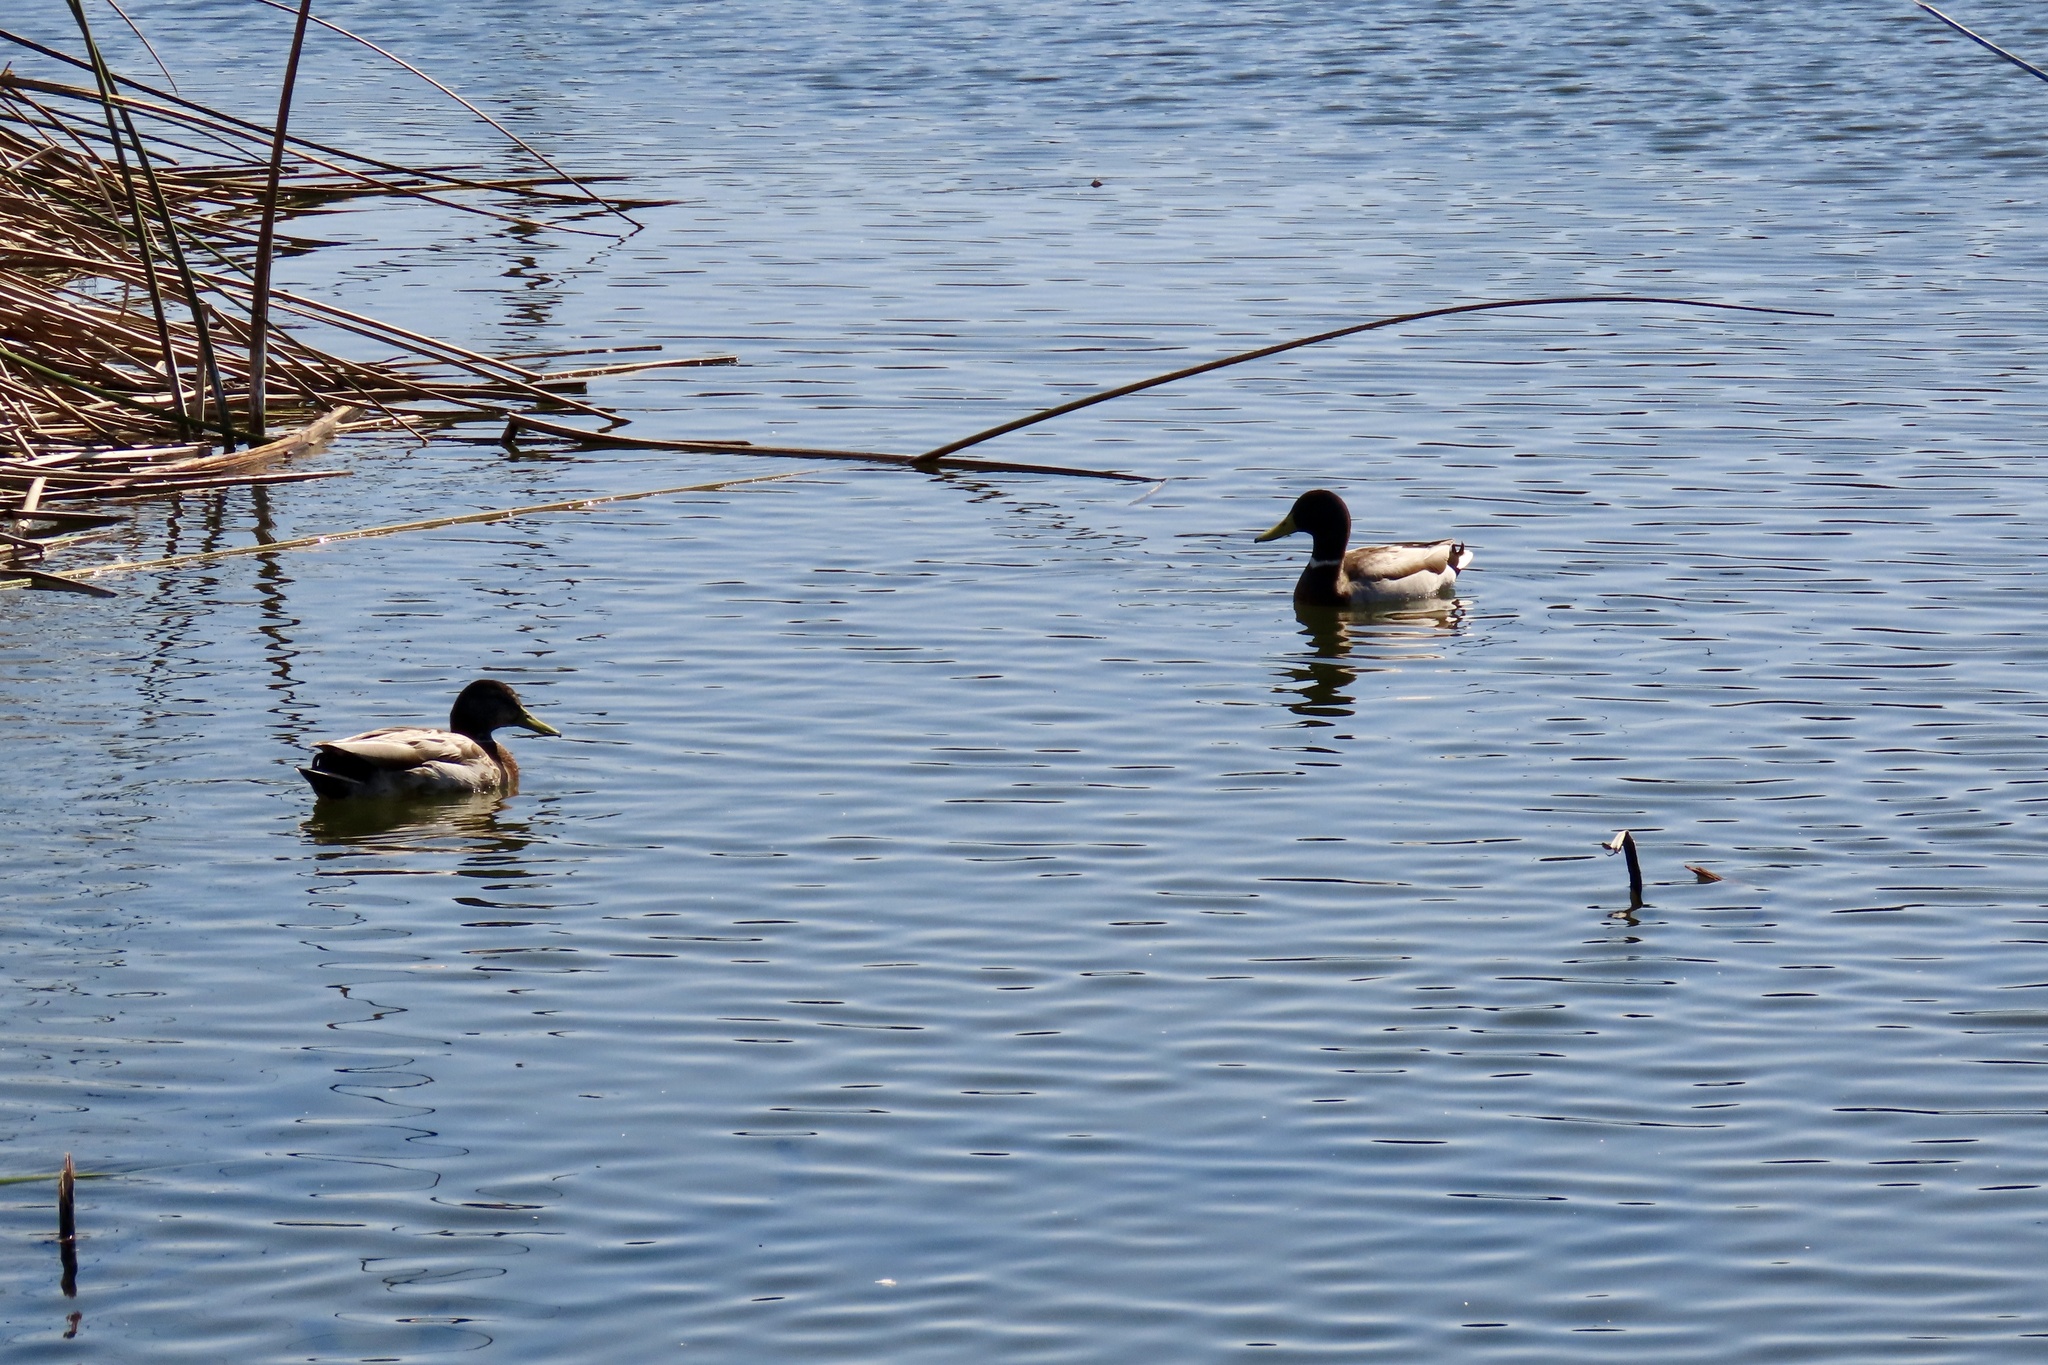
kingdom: Animalia
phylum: Chordata
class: Aves
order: Anseriformes
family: Anatidae
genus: Anas
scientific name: Anas platyrhynchos
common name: Mallard
